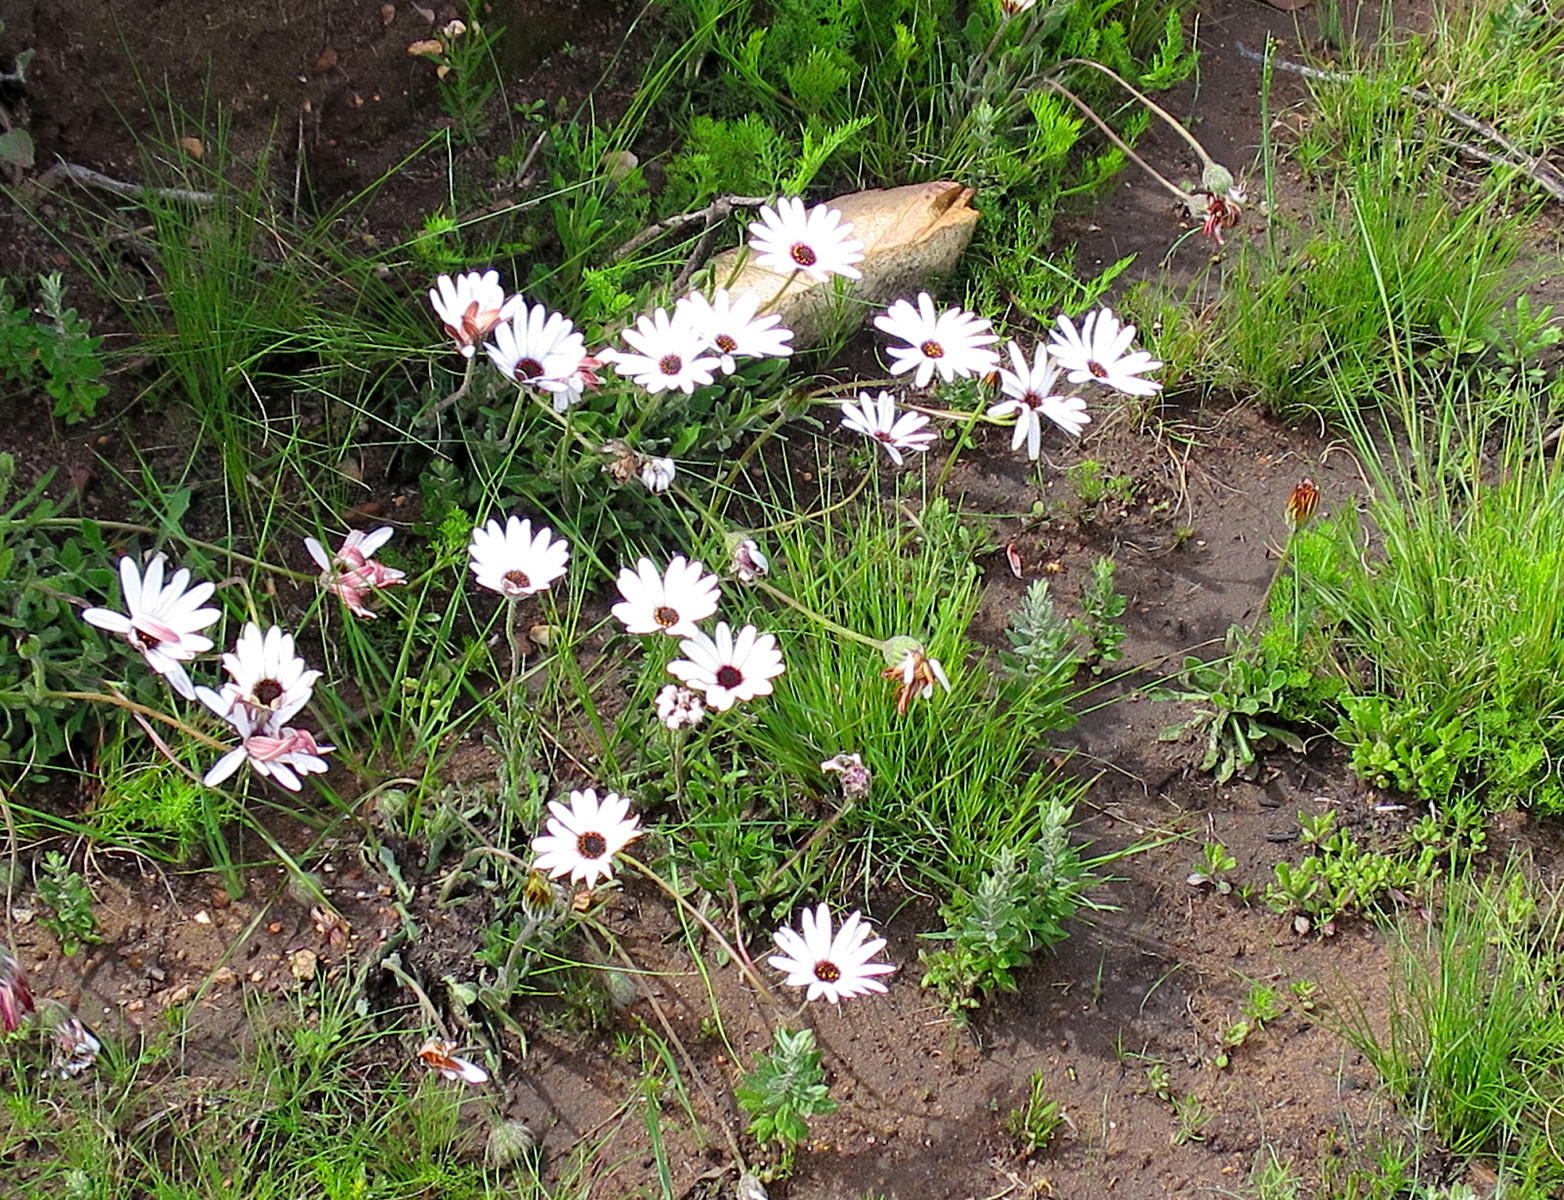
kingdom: Plantae
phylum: Tracheophyta
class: Magnoliopsida
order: Asterales
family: Asteraceae
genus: Dimorphotheca
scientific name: Dimorphotheca montana
